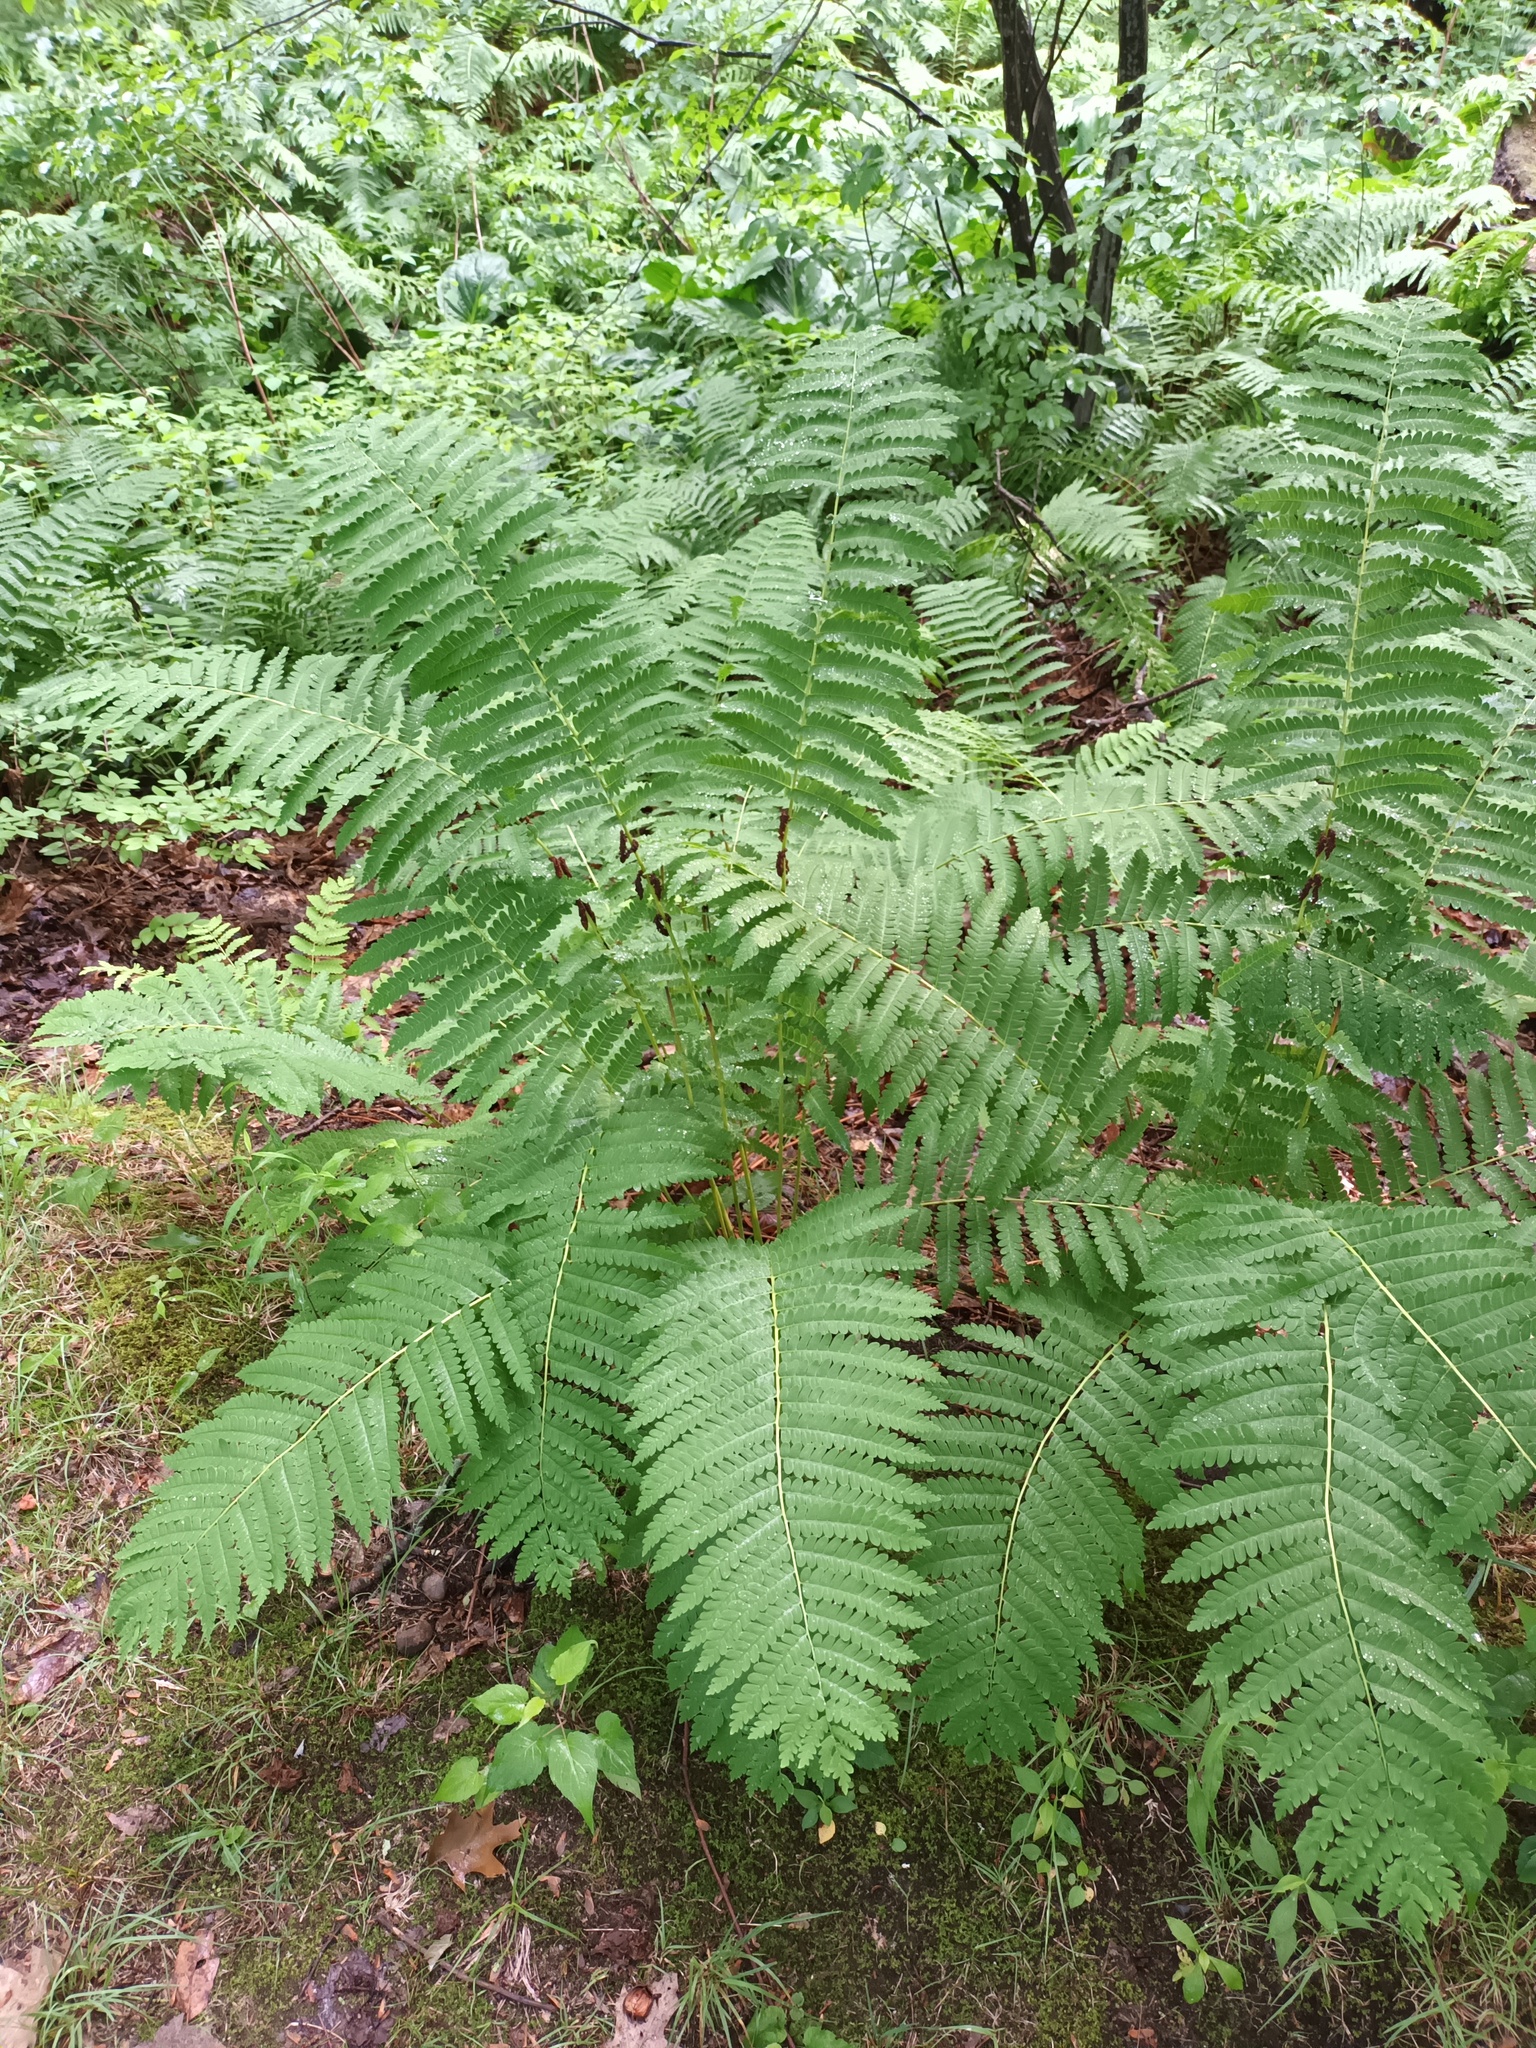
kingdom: Plantae
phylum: Tracheophyta
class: Polypodiopsida
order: Osmundales
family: Osmundaceae
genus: Claytosmunda
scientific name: Claytosmunda claytoniana
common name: Clayton's fern
